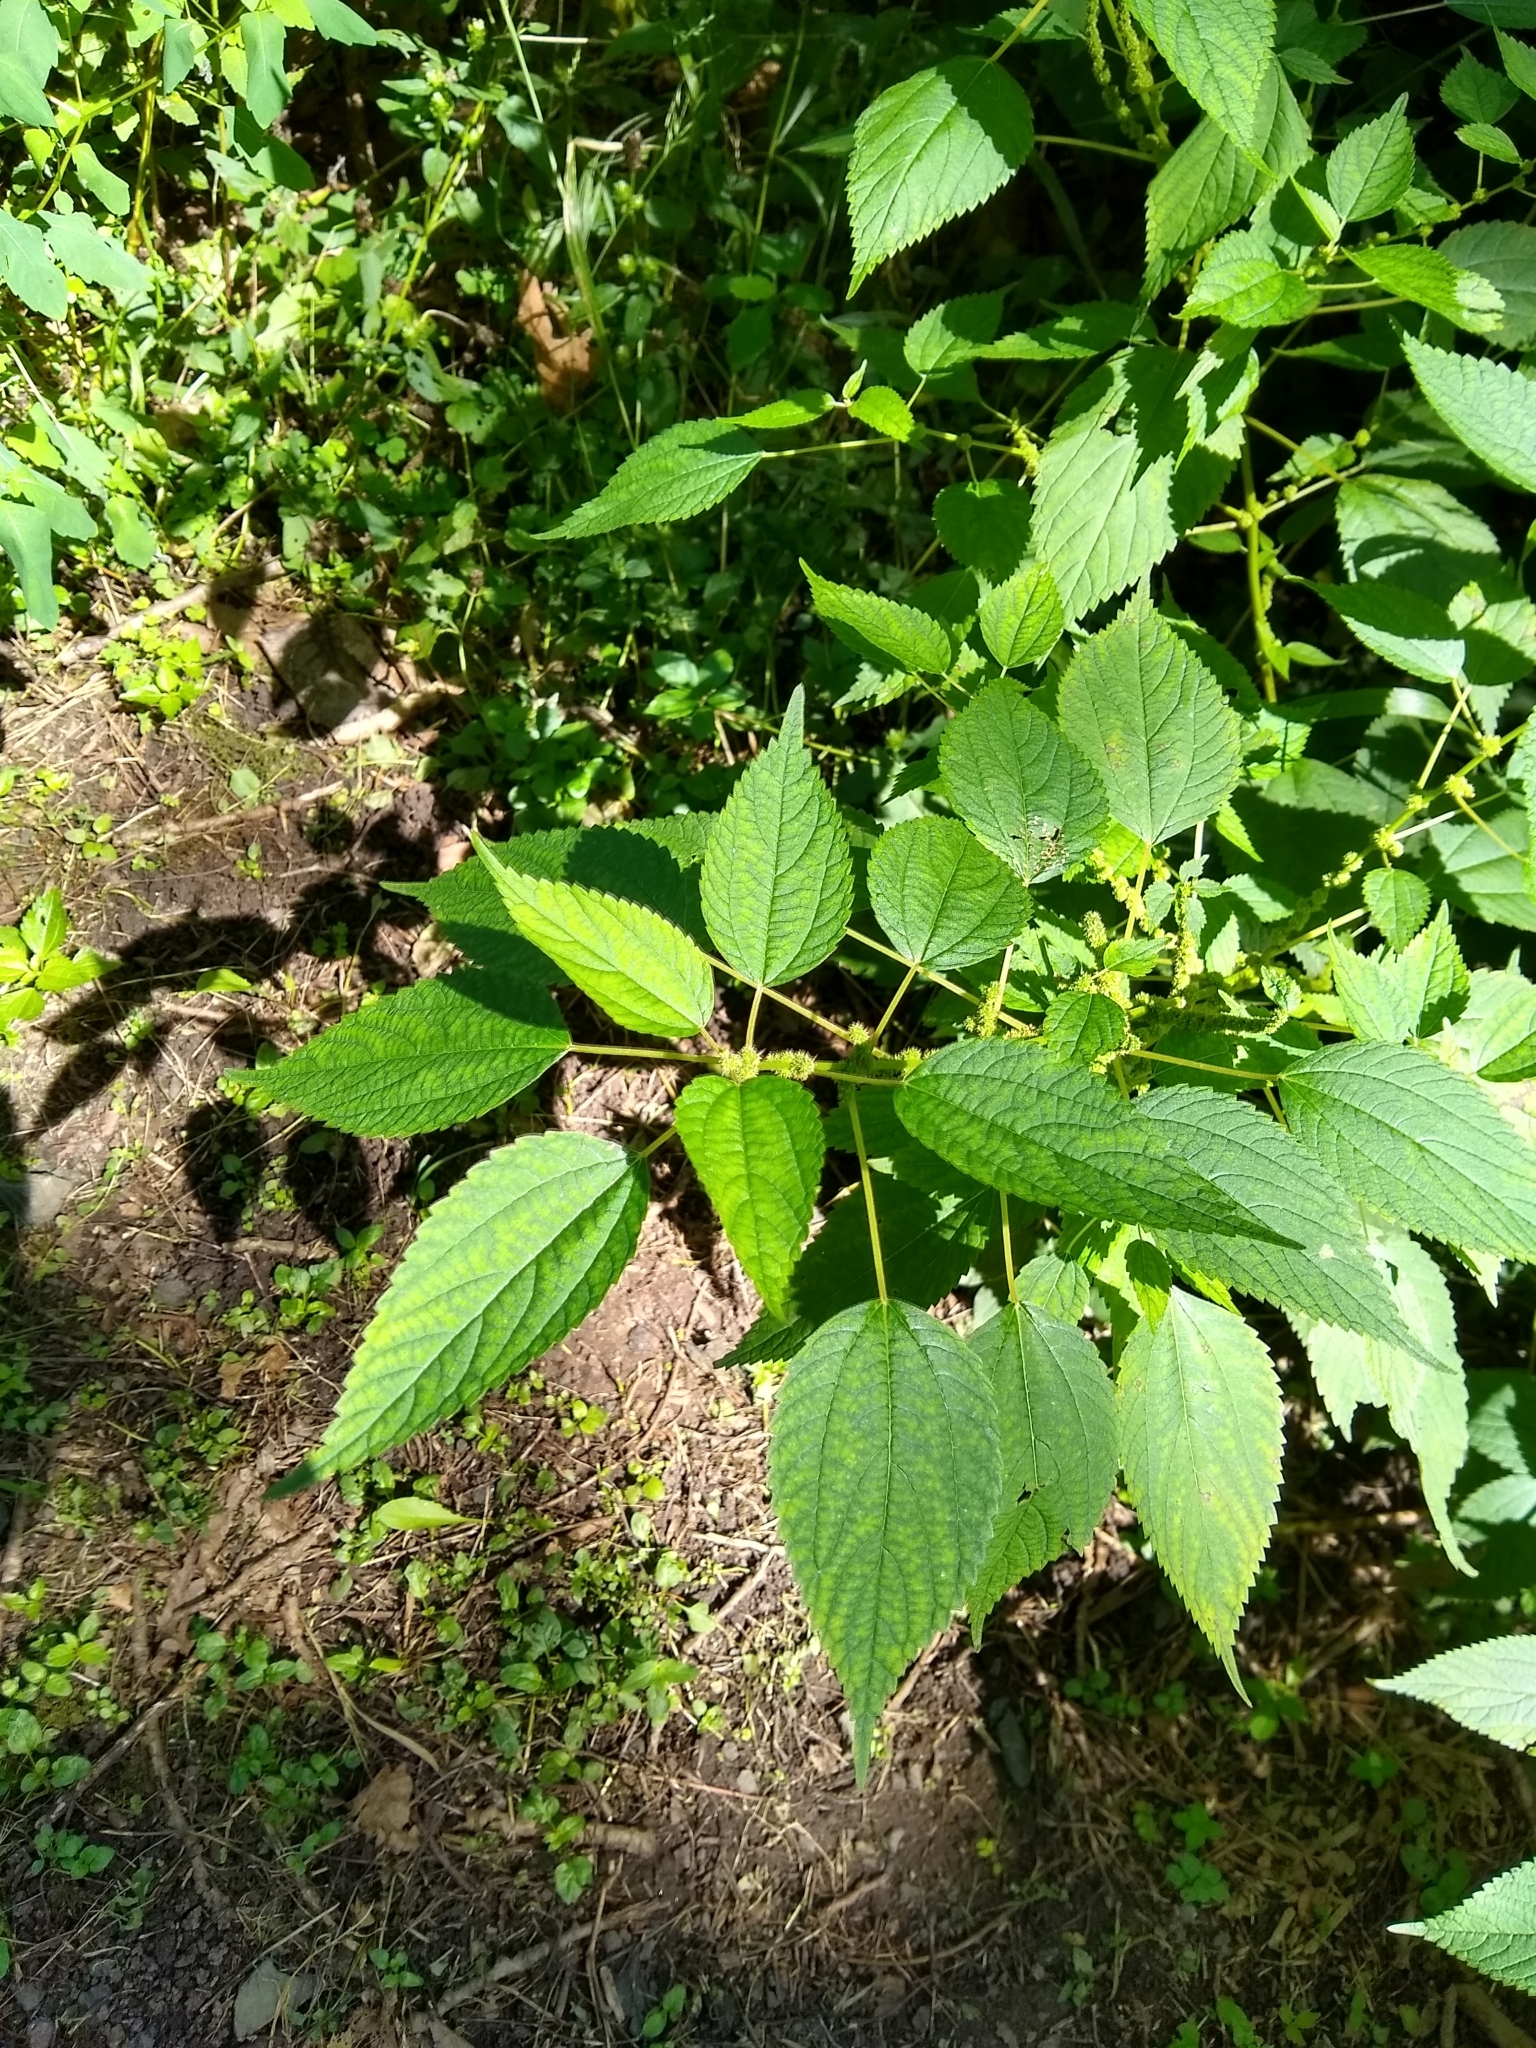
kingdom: Plantae
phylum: Tracheophyta
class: Magnoliopsida
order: Rosales
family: Urticaceae
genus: Boehmeria
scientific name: Boehmeria cylindrica
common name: Bog-hemp
